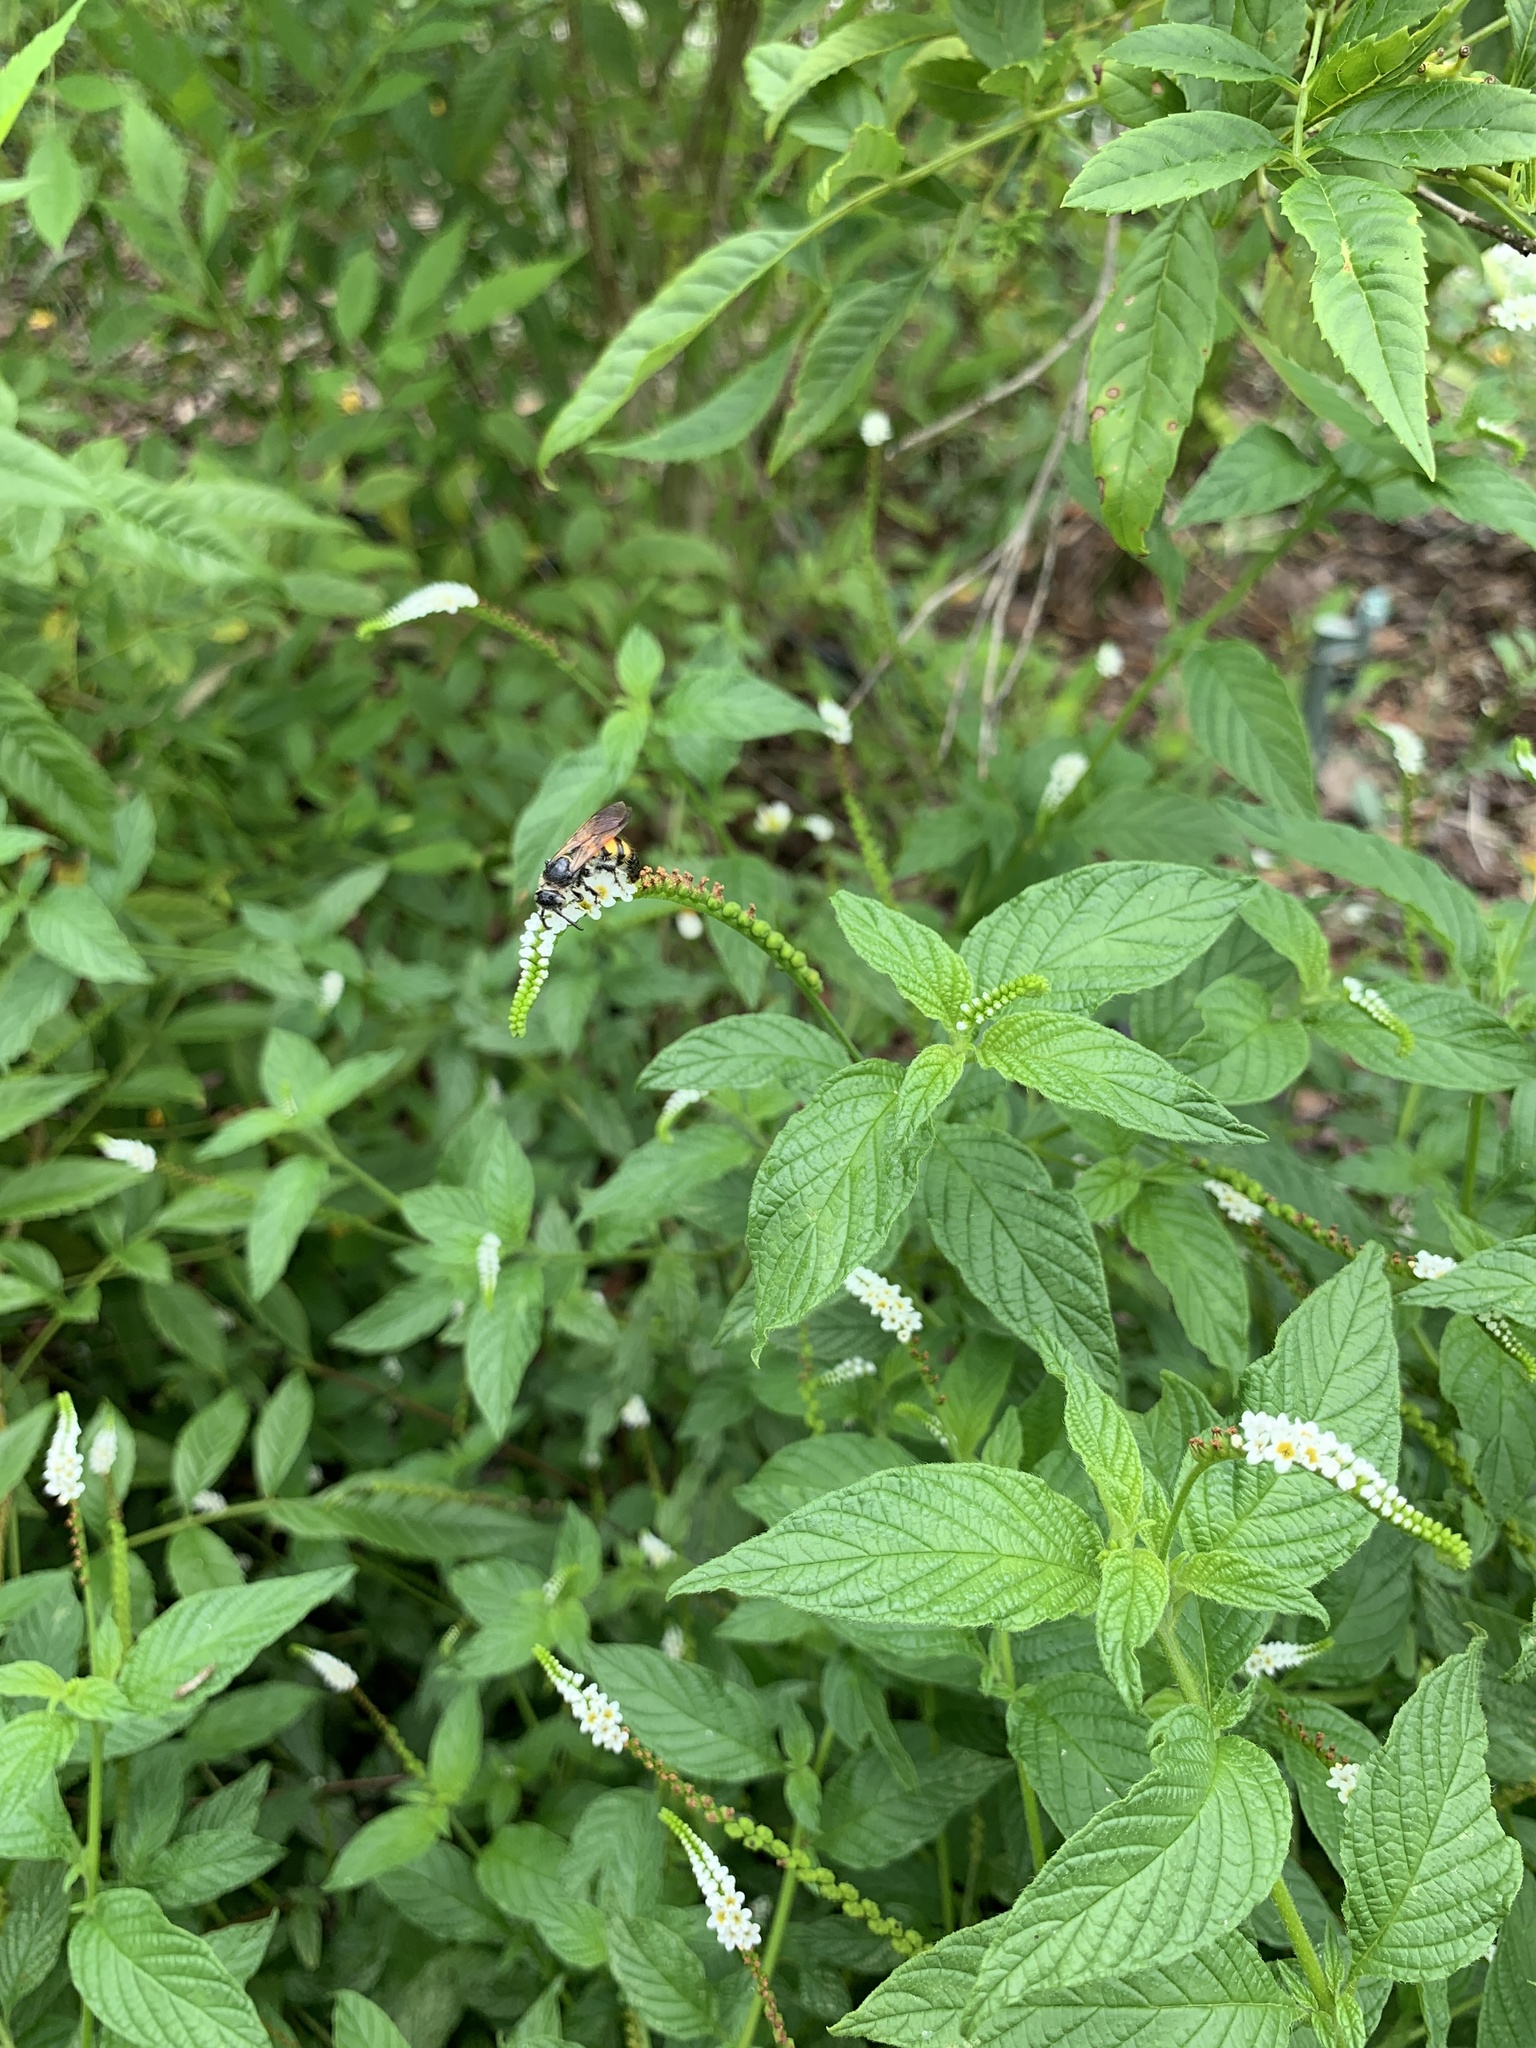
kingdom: Plantae
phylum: Tracheophyta
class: Magnoliopsida
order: Boraginales
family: Heliotropiaceae
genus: Heliotropium
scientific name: Heliotropium angiospermum
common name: Eye bright
